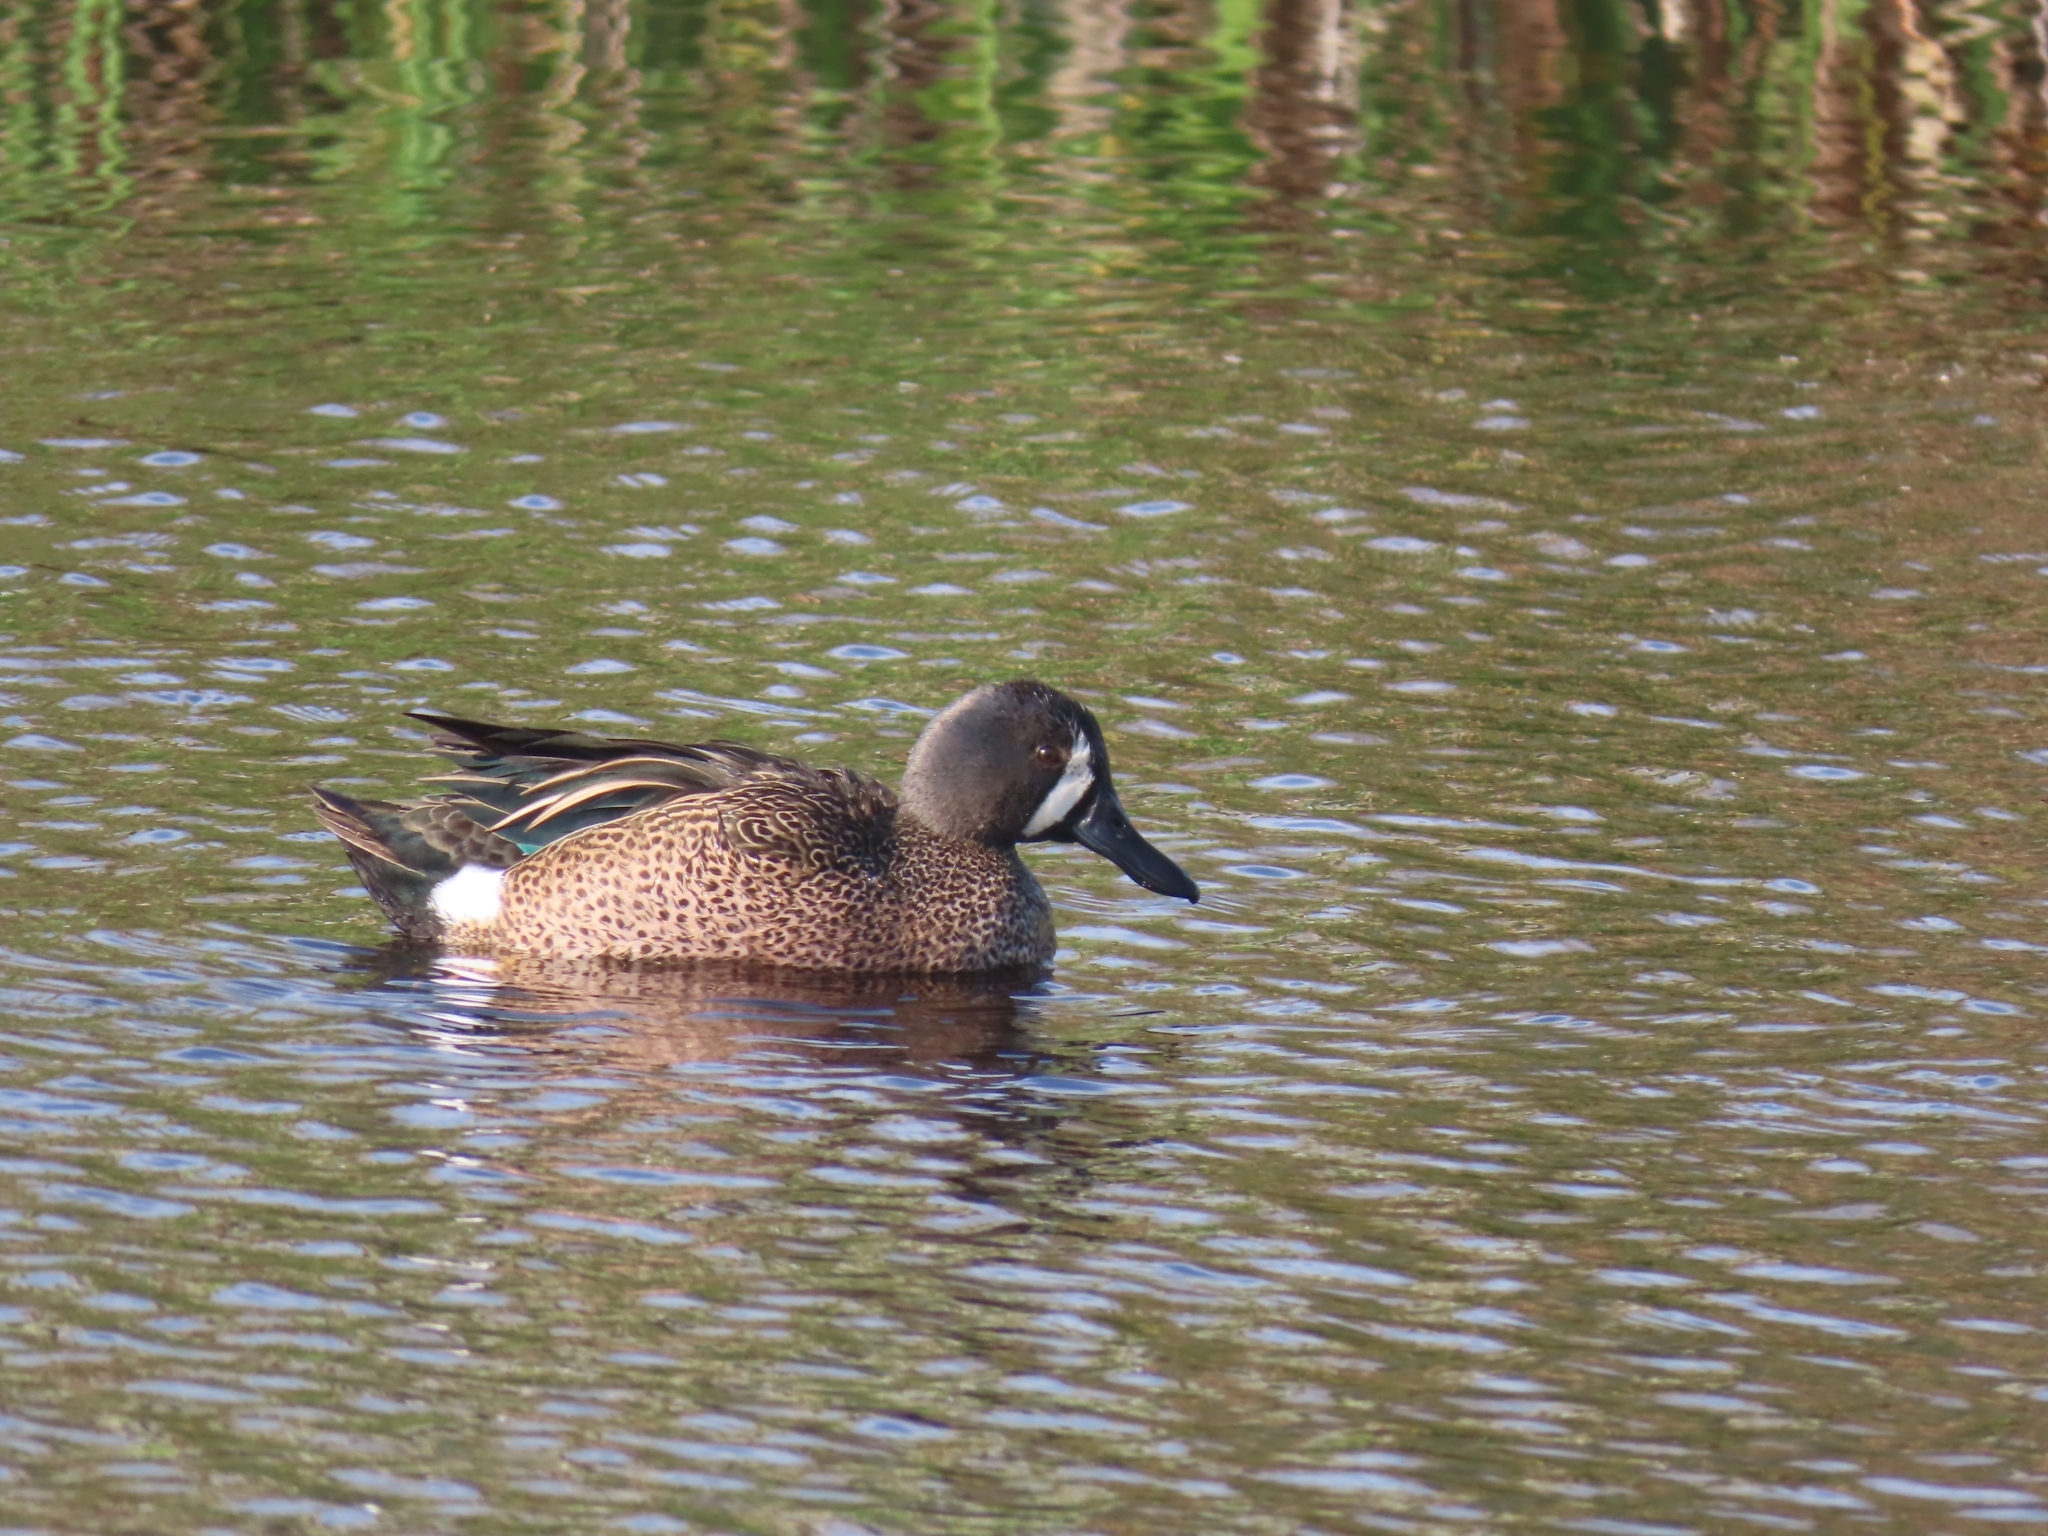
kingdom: Animalia
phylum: Chordata
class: Aves
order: Anseriformes
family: Anatidae
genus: Spatula
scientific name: Spatula discors
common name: Blue-winged teal
